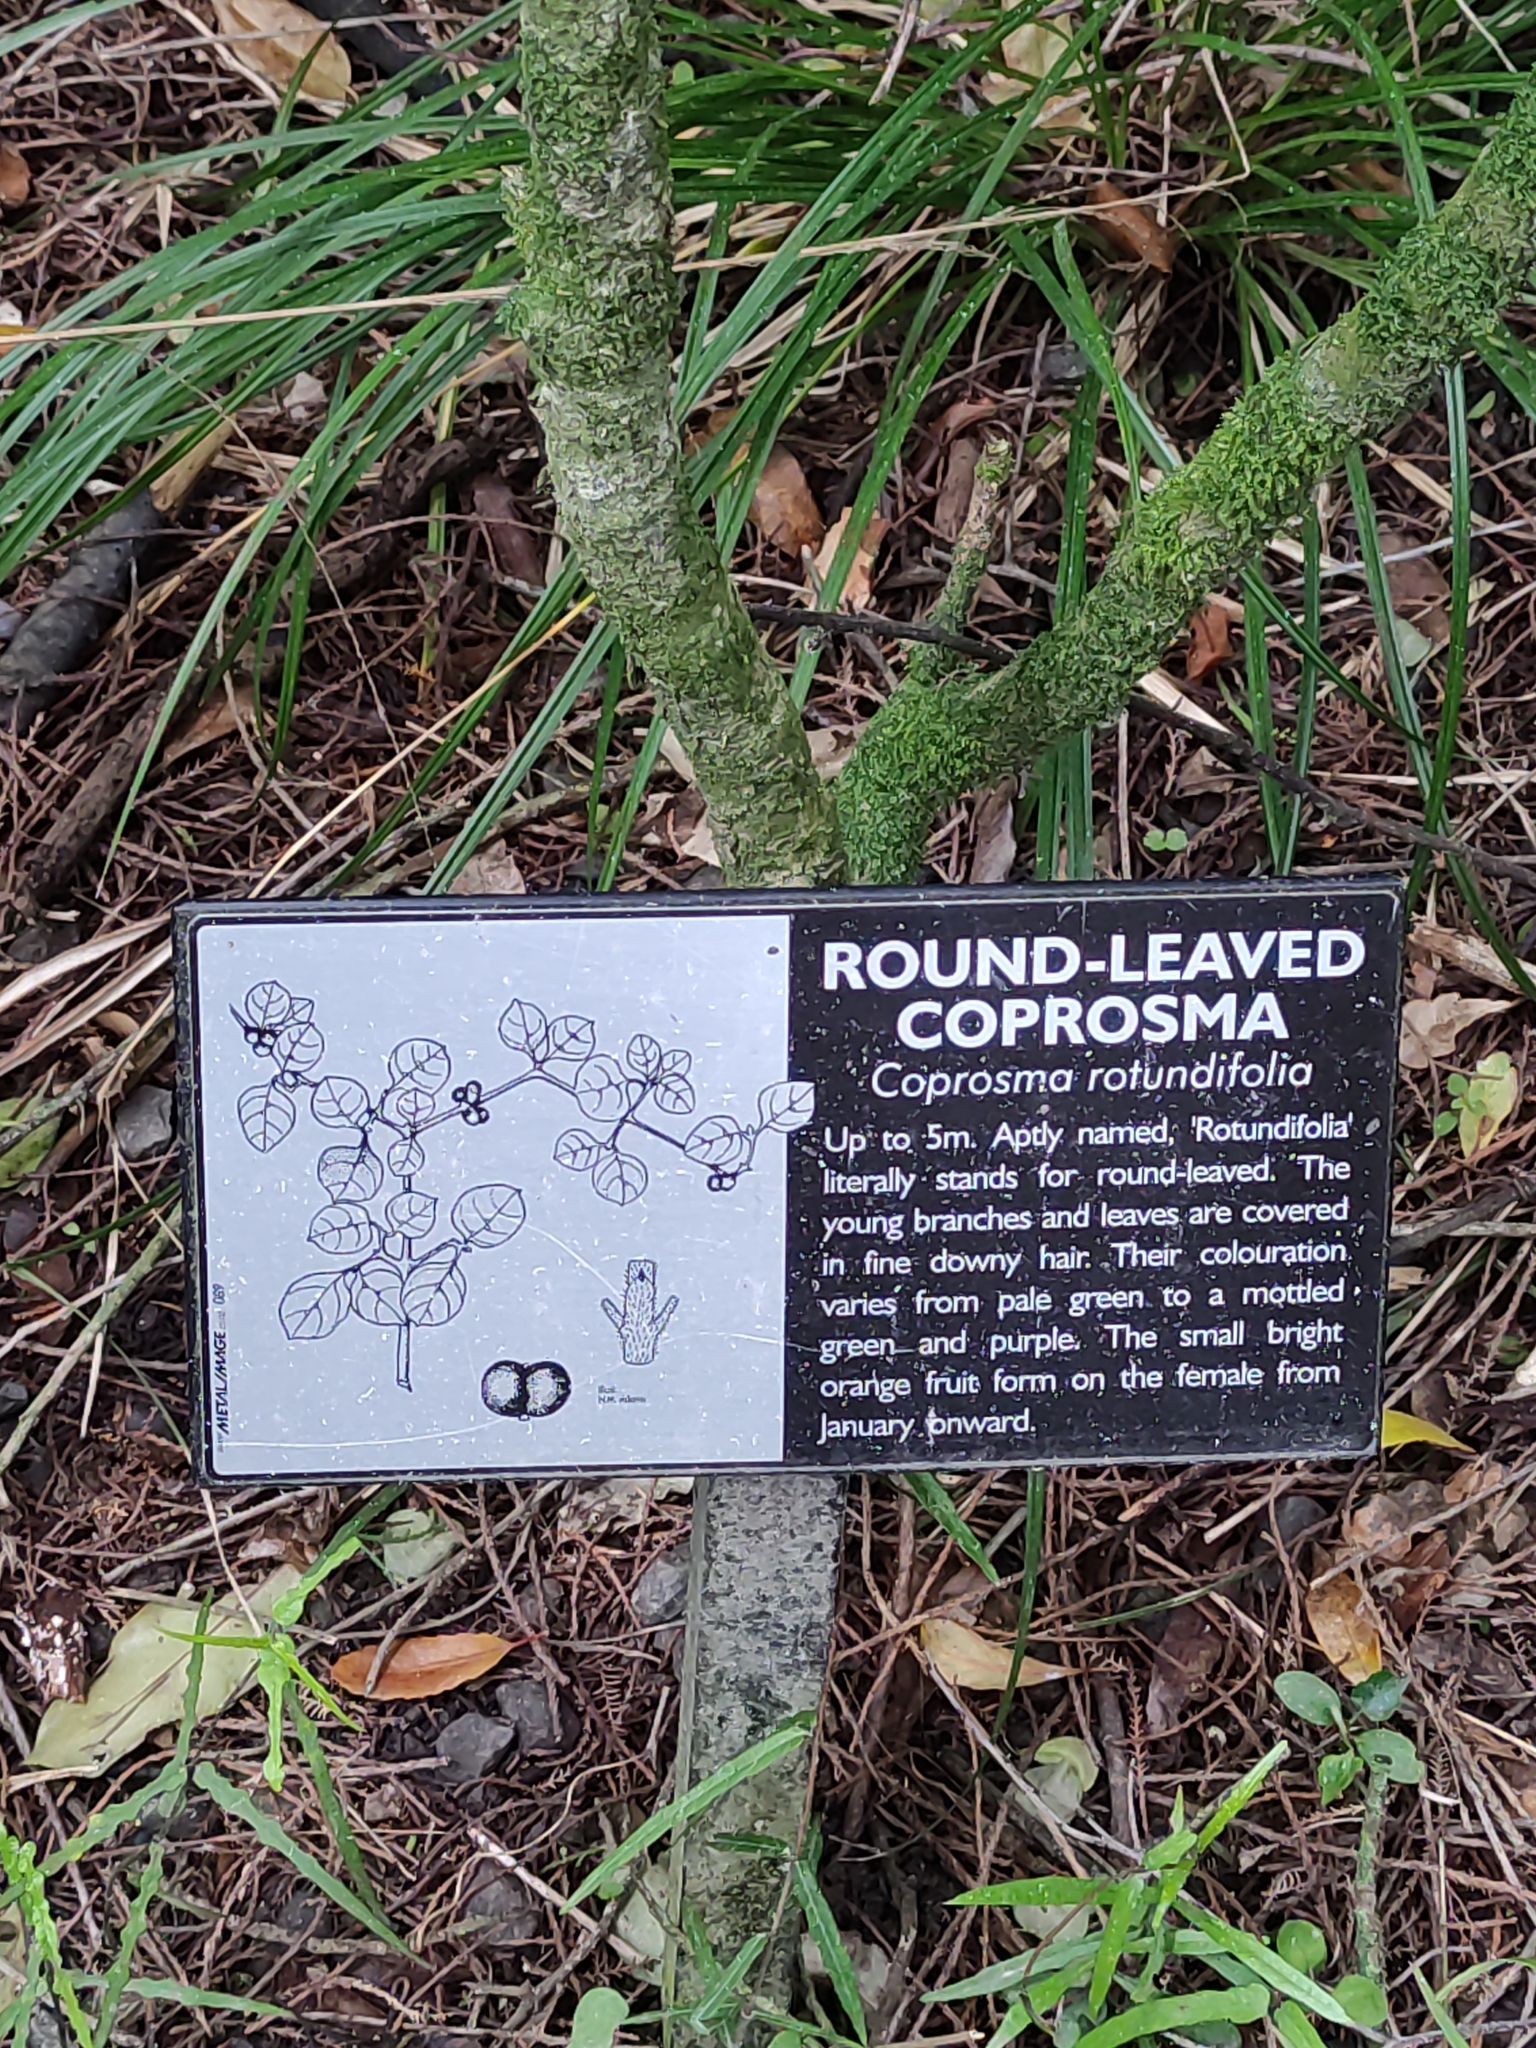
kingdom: Plantae
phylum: Tracheophyta
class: Magnoliopsida
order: Gentianales
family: Rubiaceae
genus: Coprosma
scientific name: Coprosma rotundifolia
